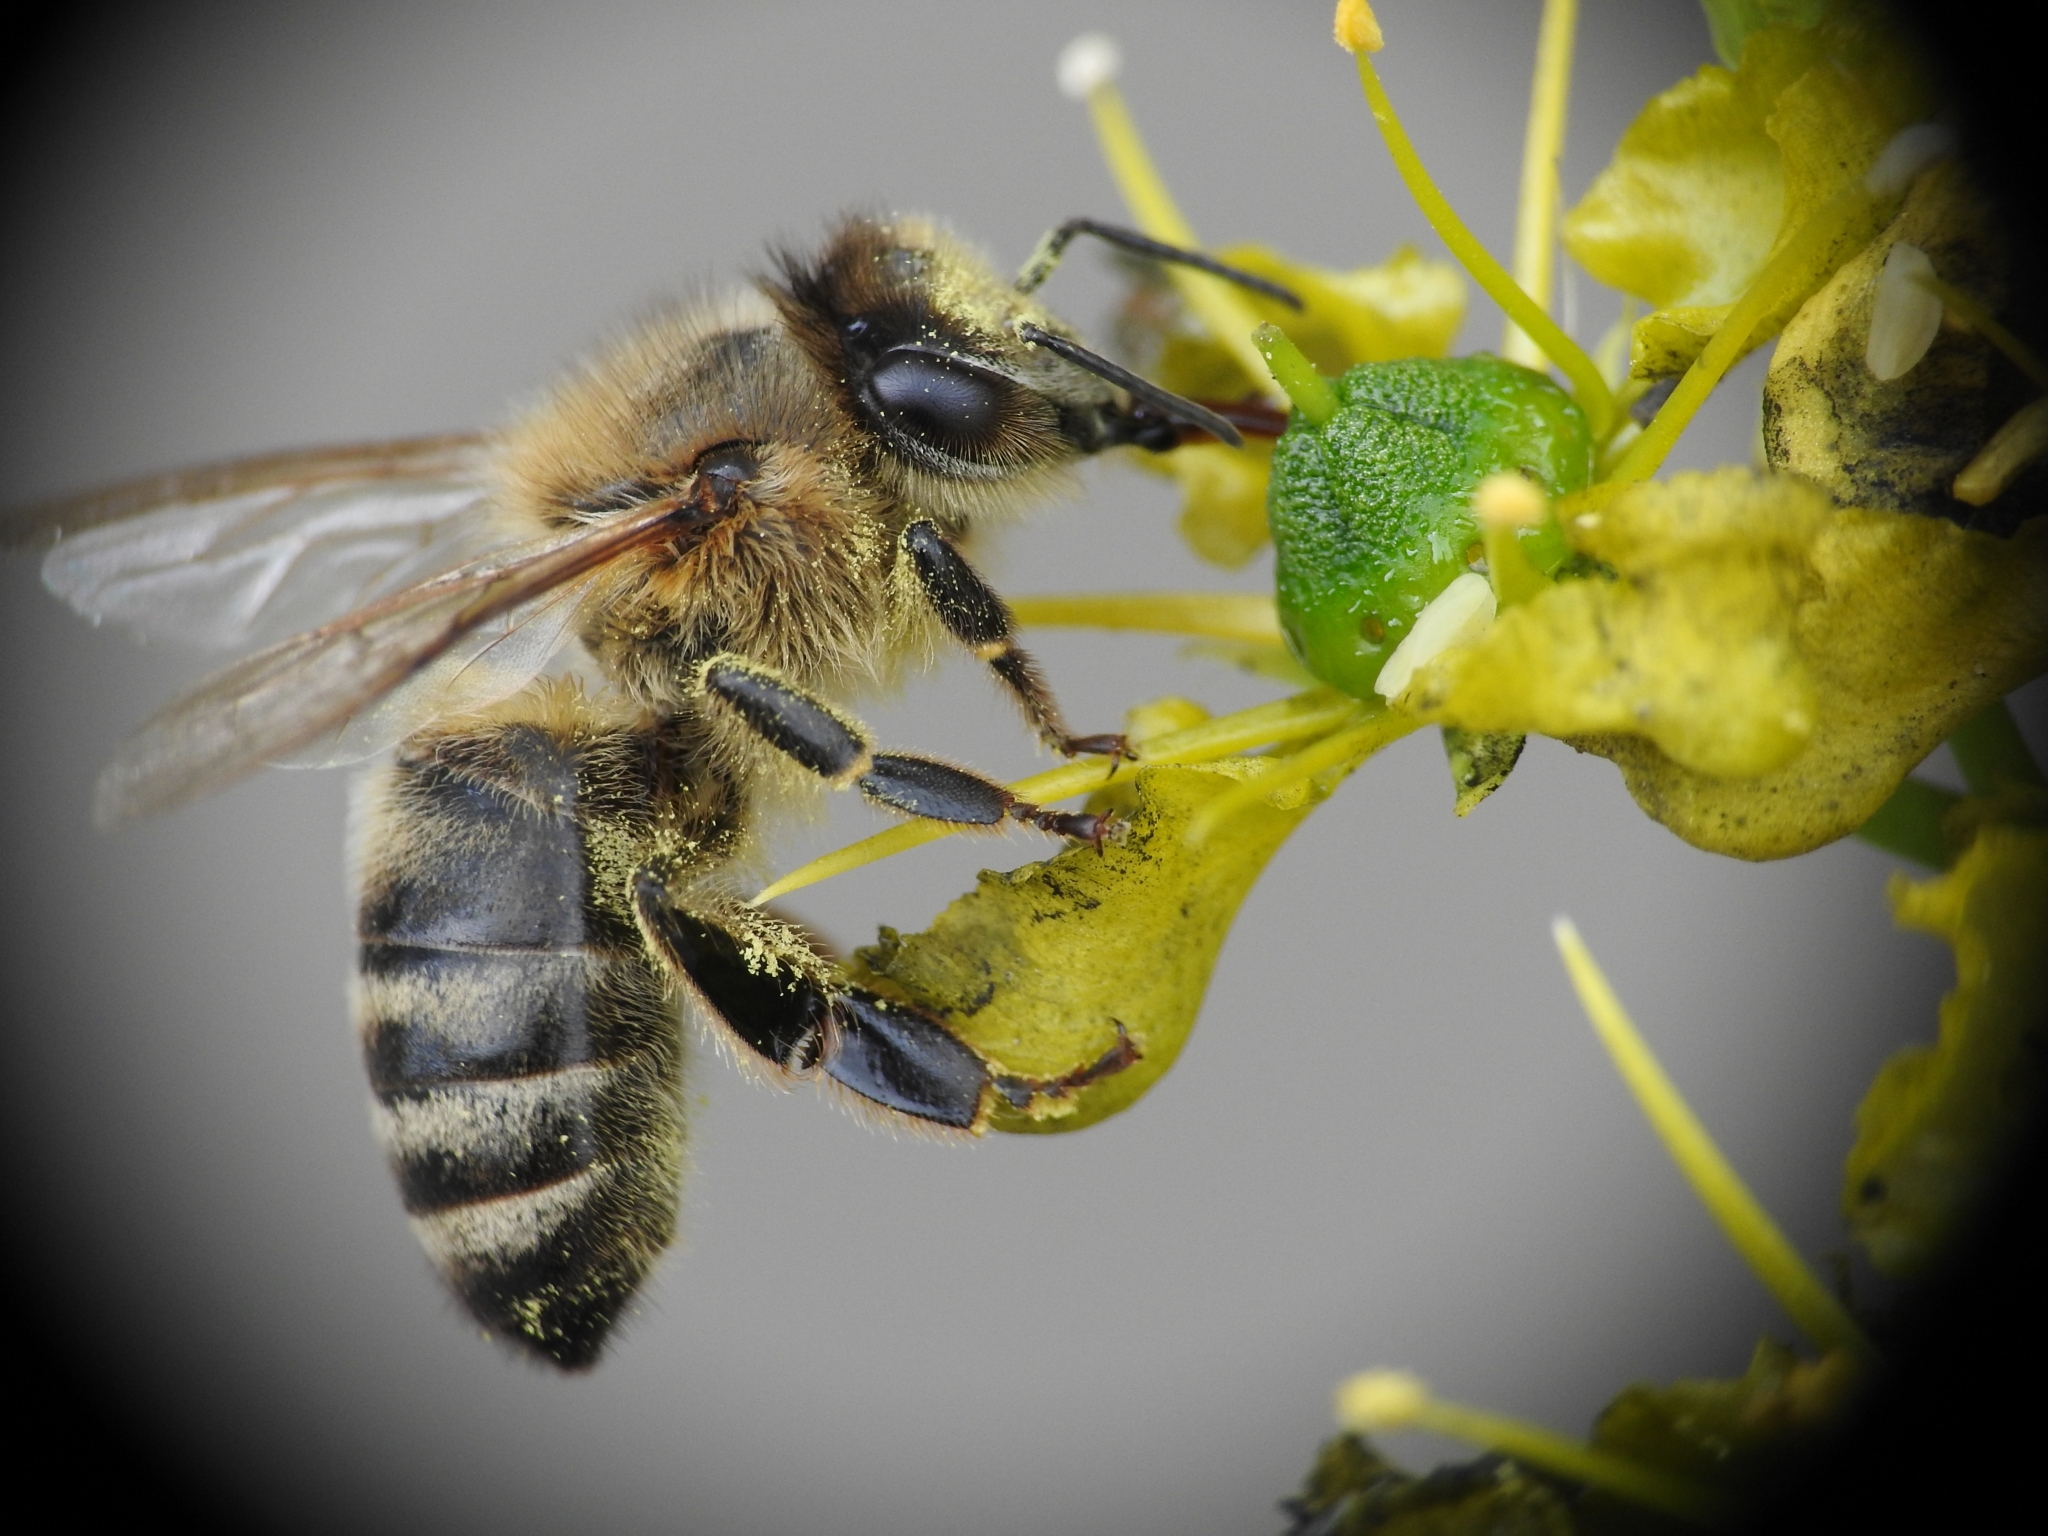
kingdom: Animalia
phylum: Arthropoda
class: Insecta
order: Hymenoptera
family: Apidae
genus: Apis
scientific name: Apis mellifera
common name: Honey bee
